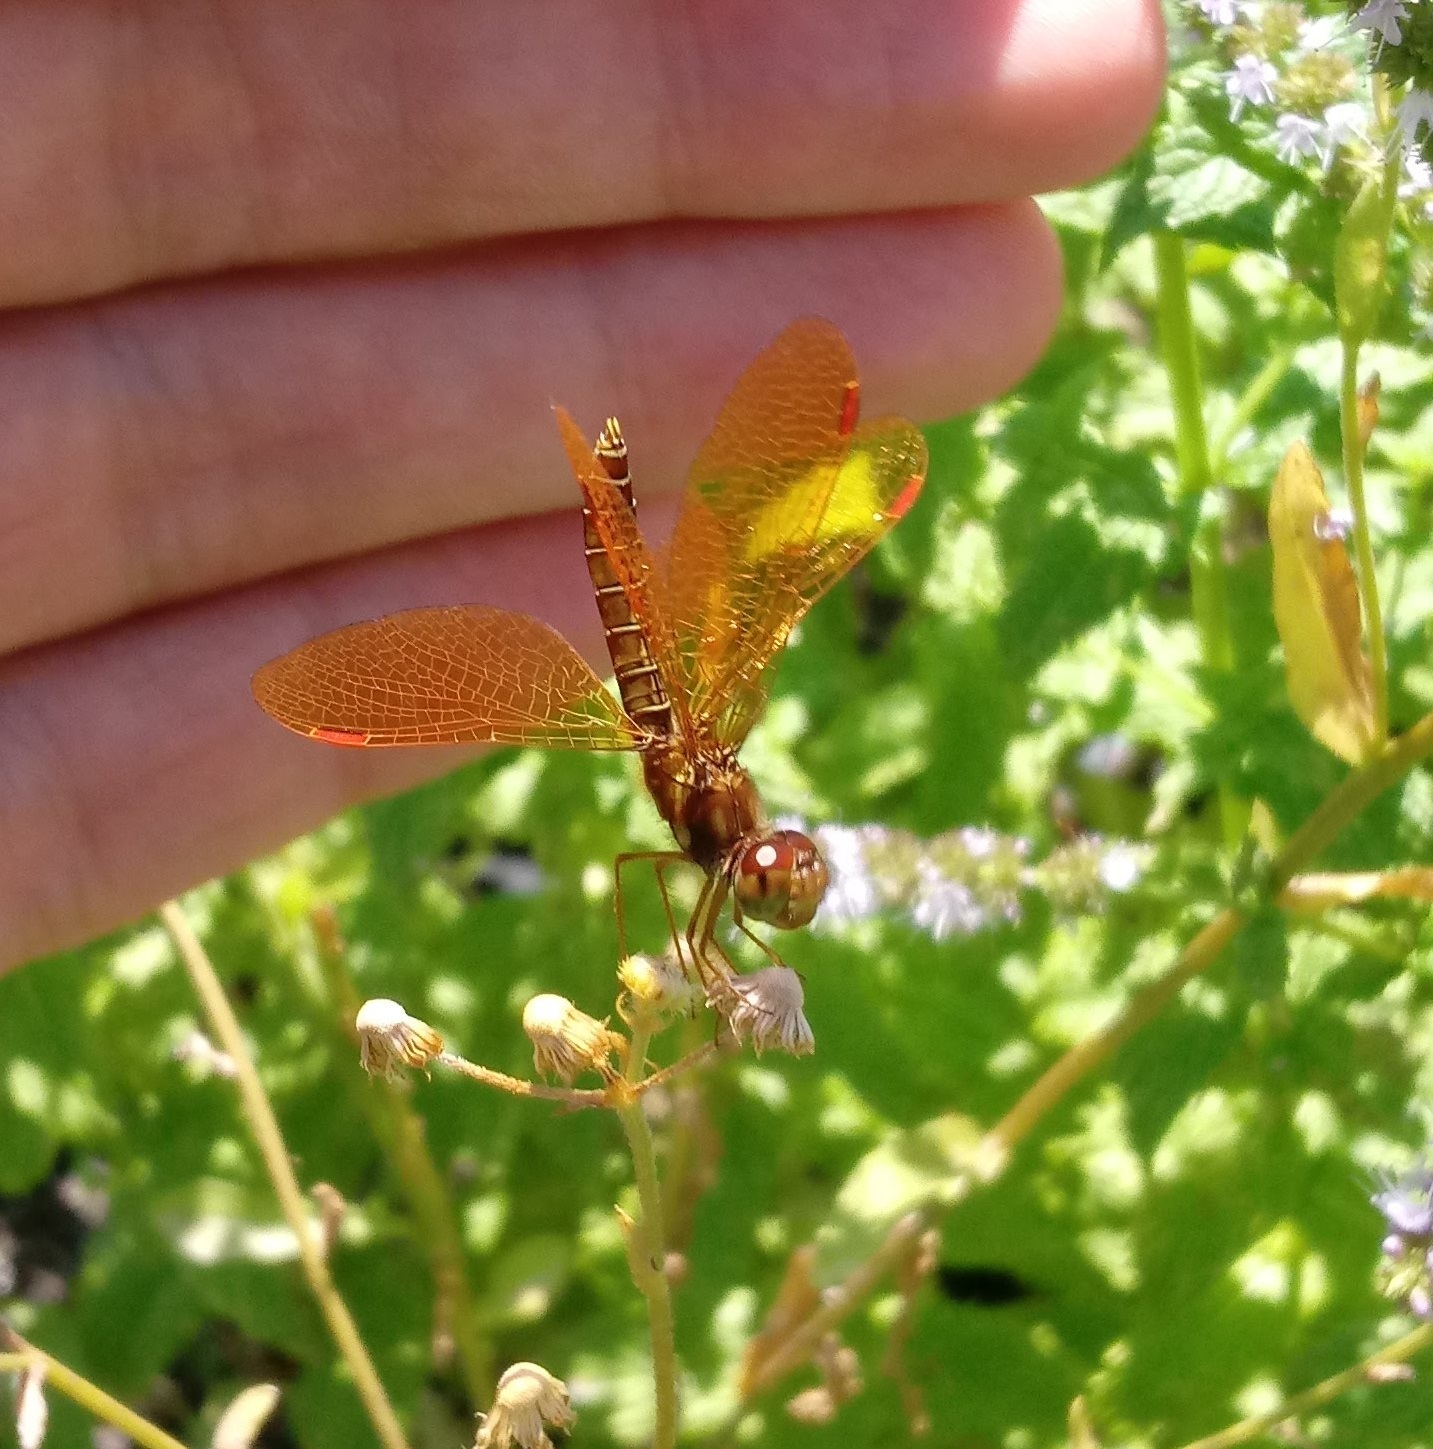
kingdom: Animalia
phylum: Arthropoda
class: Insecta
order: Odonata
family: Libellulidae
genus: Perithemis
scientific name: Perithemis tenera
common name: Eastern amberwing
